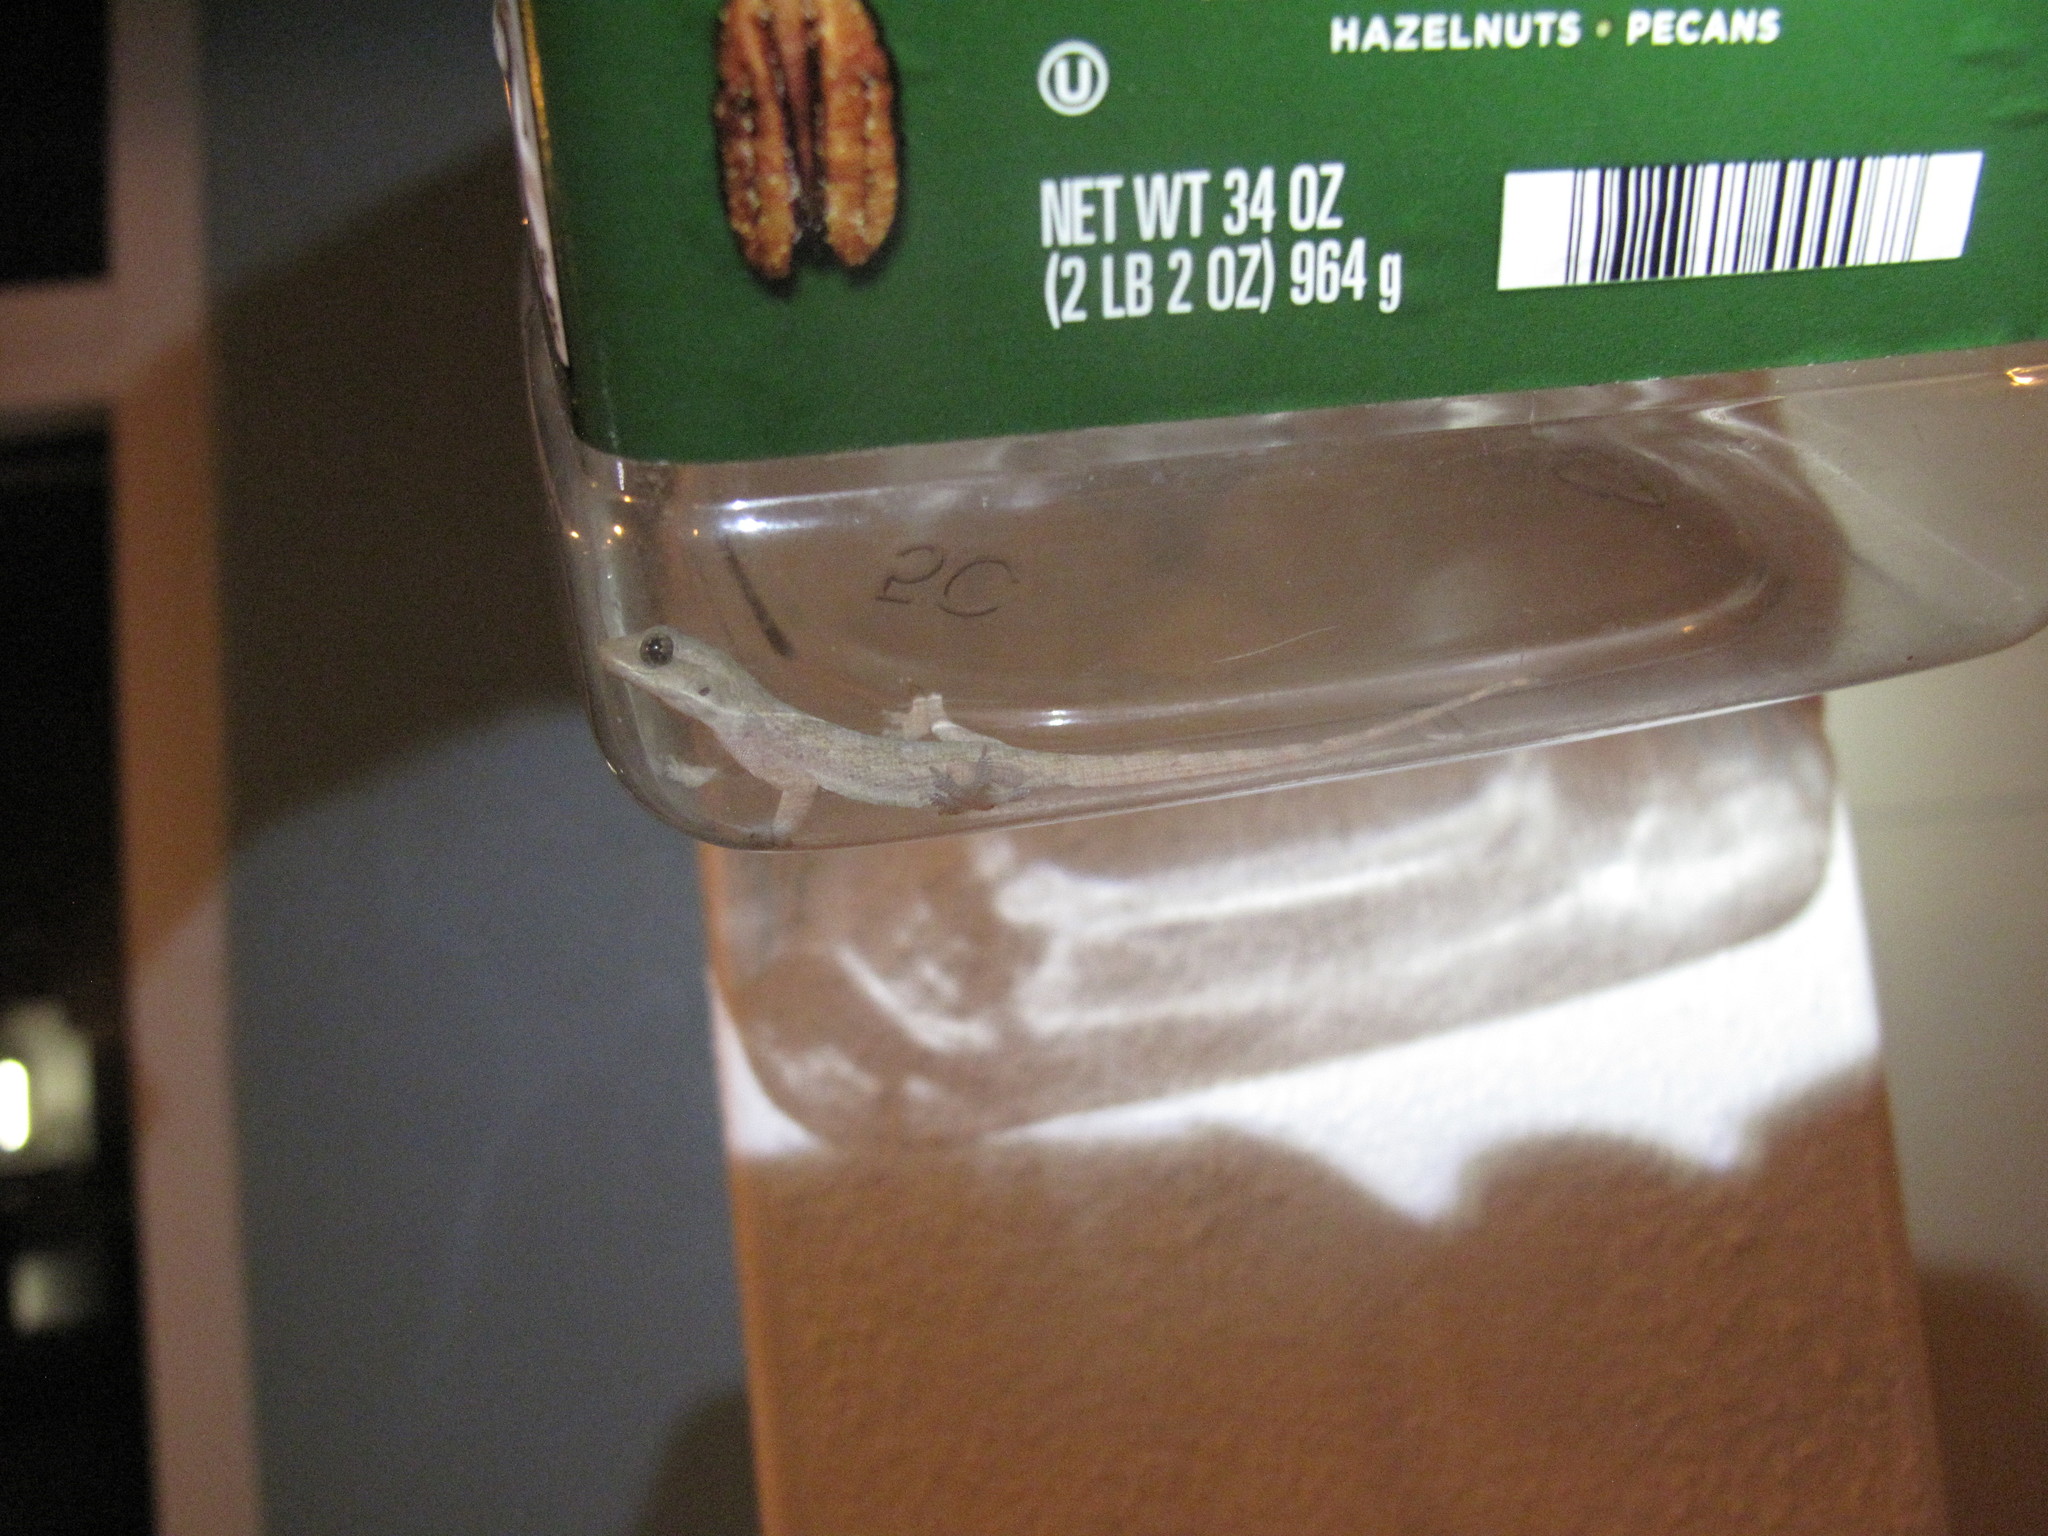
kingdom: Animalia
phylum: Chordata
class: Squamata
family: Gekkonidae
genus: Hemidactylus
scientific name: Hemidactylus platyurus
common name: Flat-tailed house gecko
